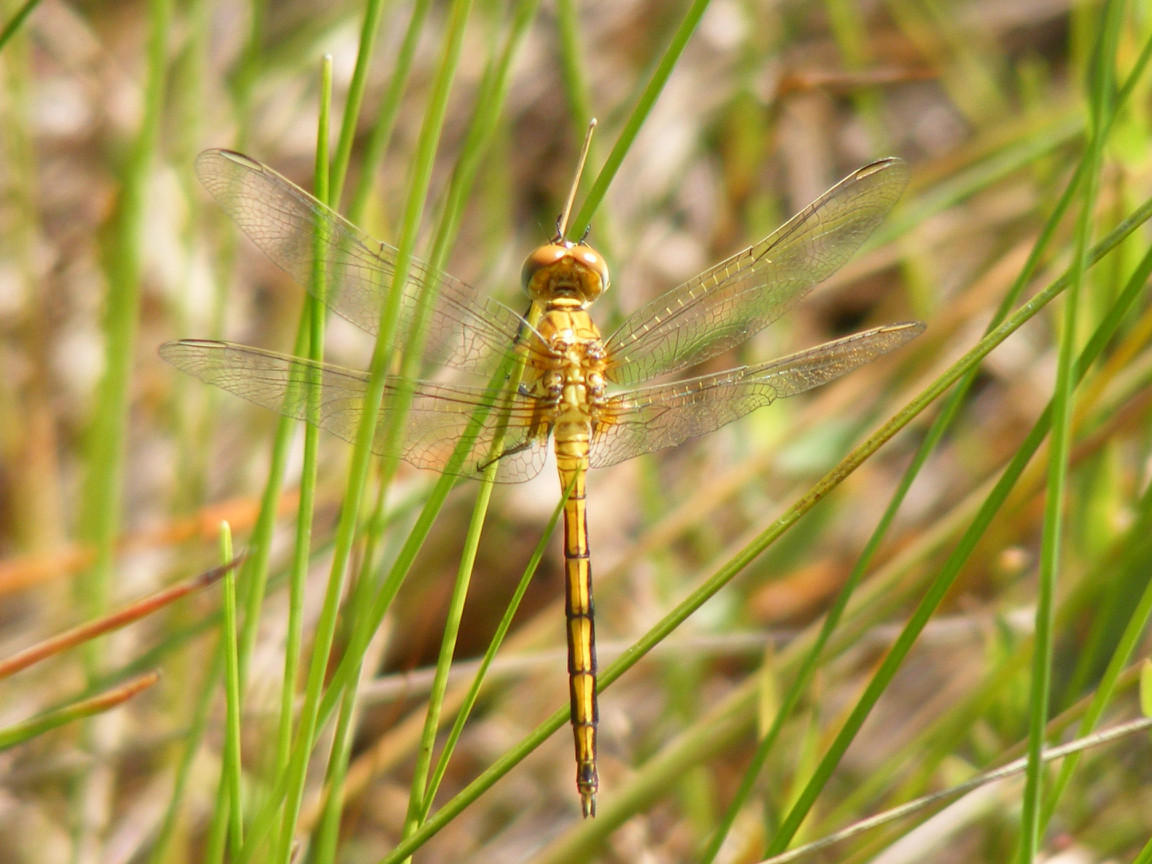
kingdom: Animalia
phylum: Arthropoda
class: Insecta
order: Odonata
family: Libellulidae
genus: Orthetrum
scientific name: Orthetrum machadoi
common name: Highland skimmer
